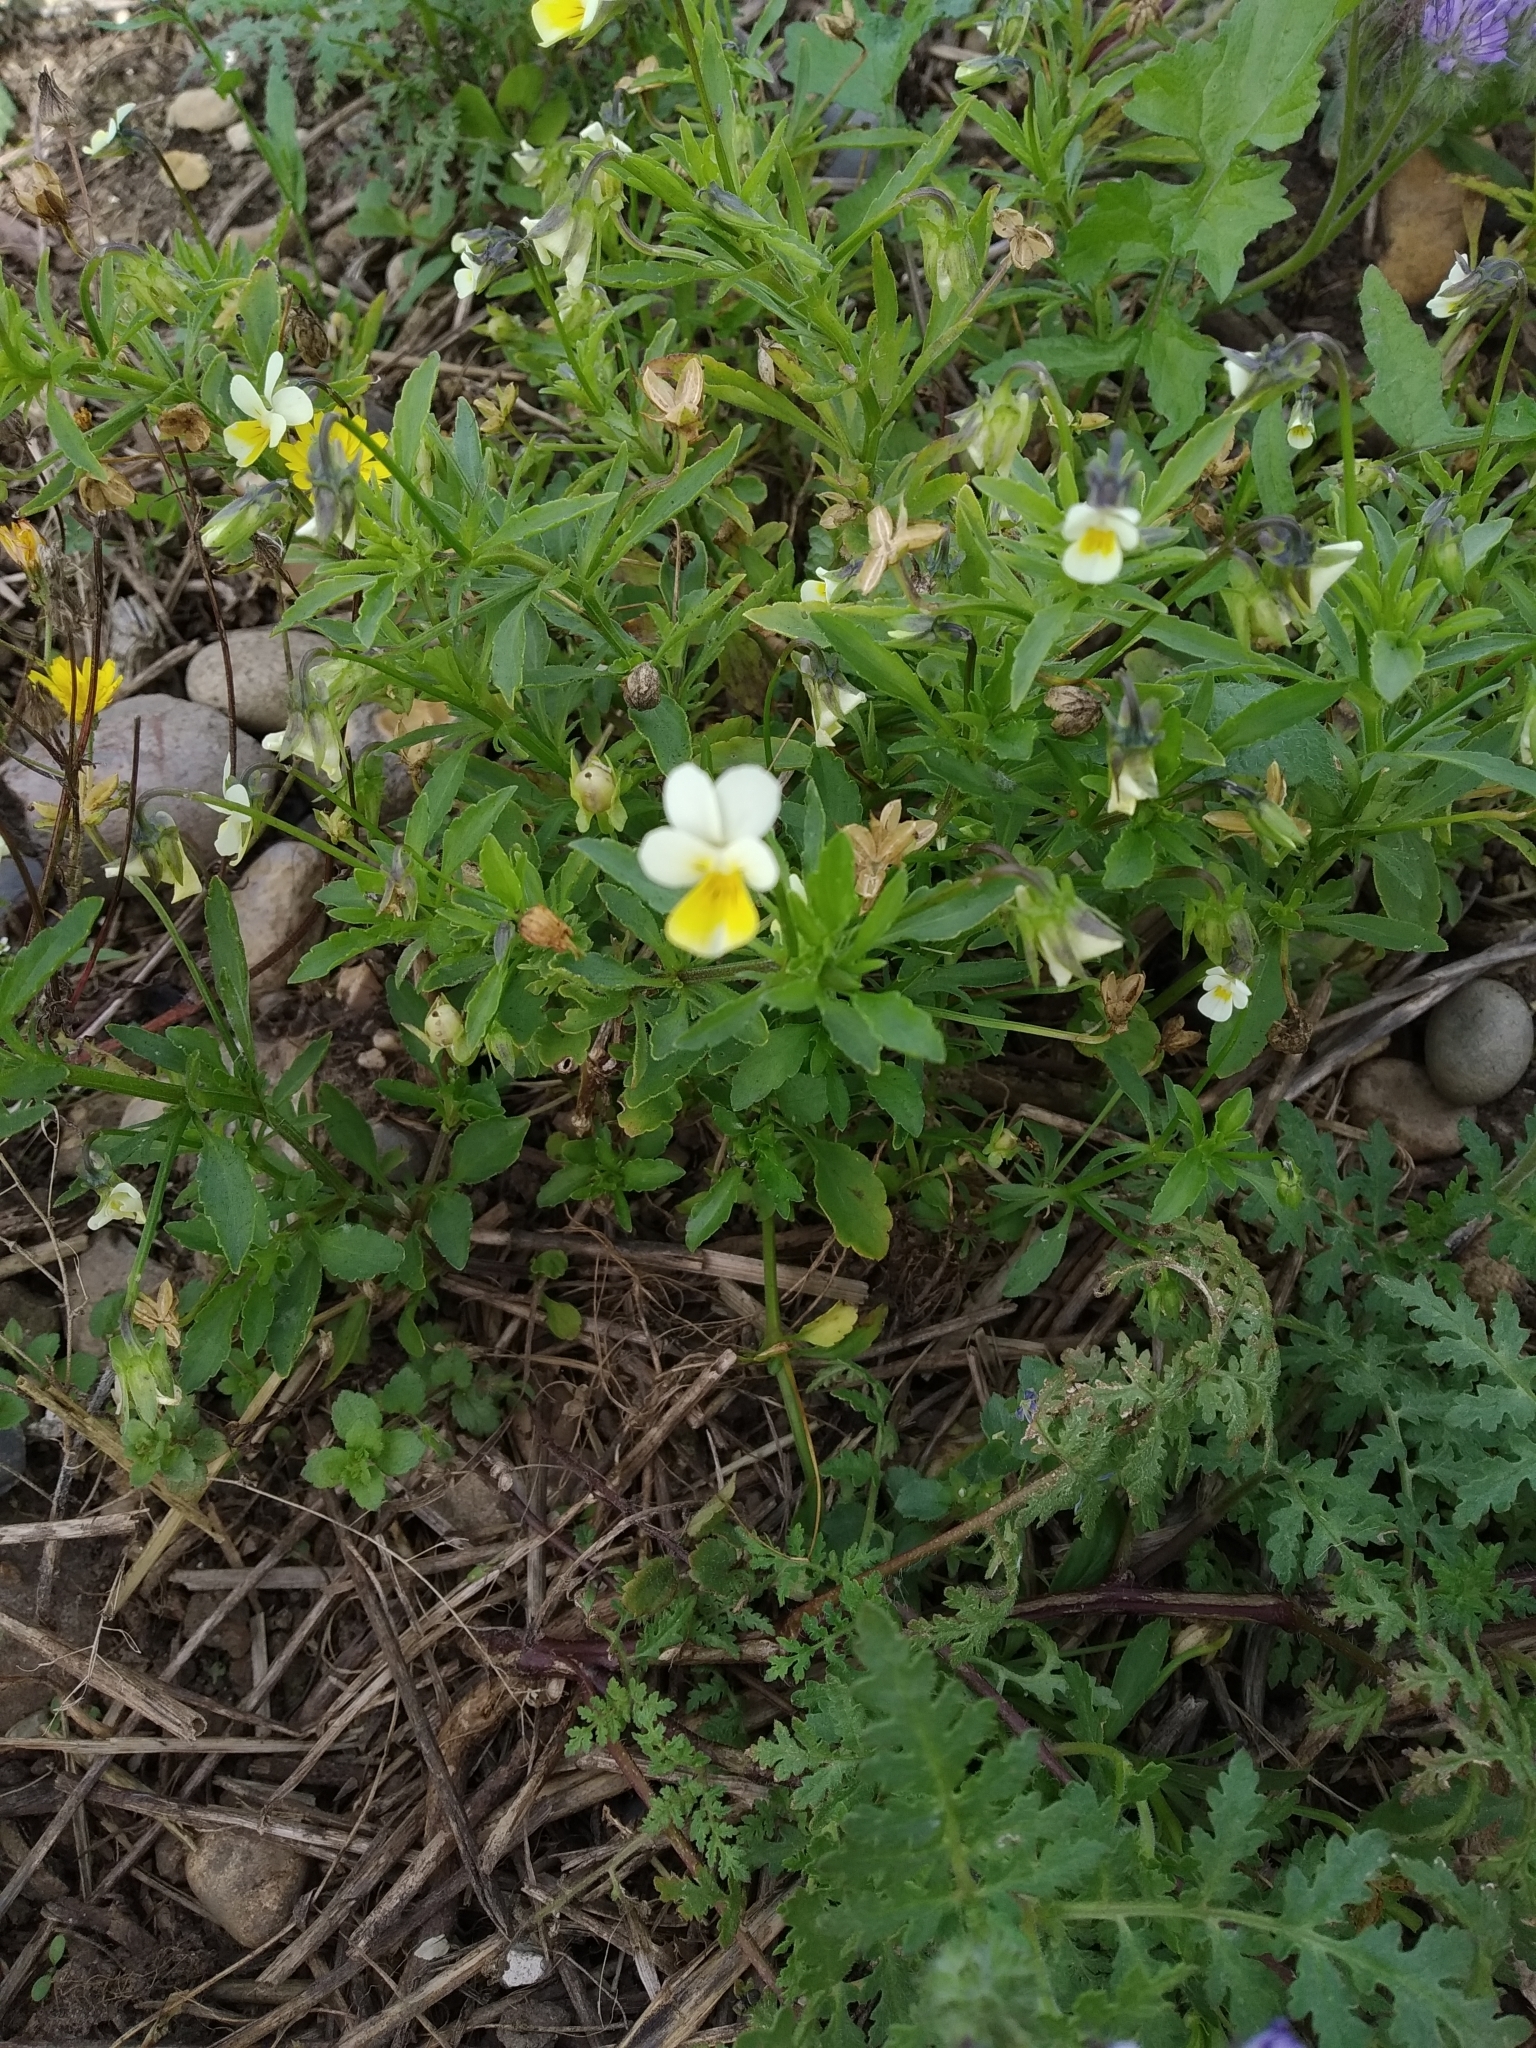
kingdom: Plantae
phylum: Tracheophyta
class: Magnoliopsida
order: Malpighiales
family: Violaceae
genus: Viola
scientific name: Viola arvensis
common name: Field pansy
